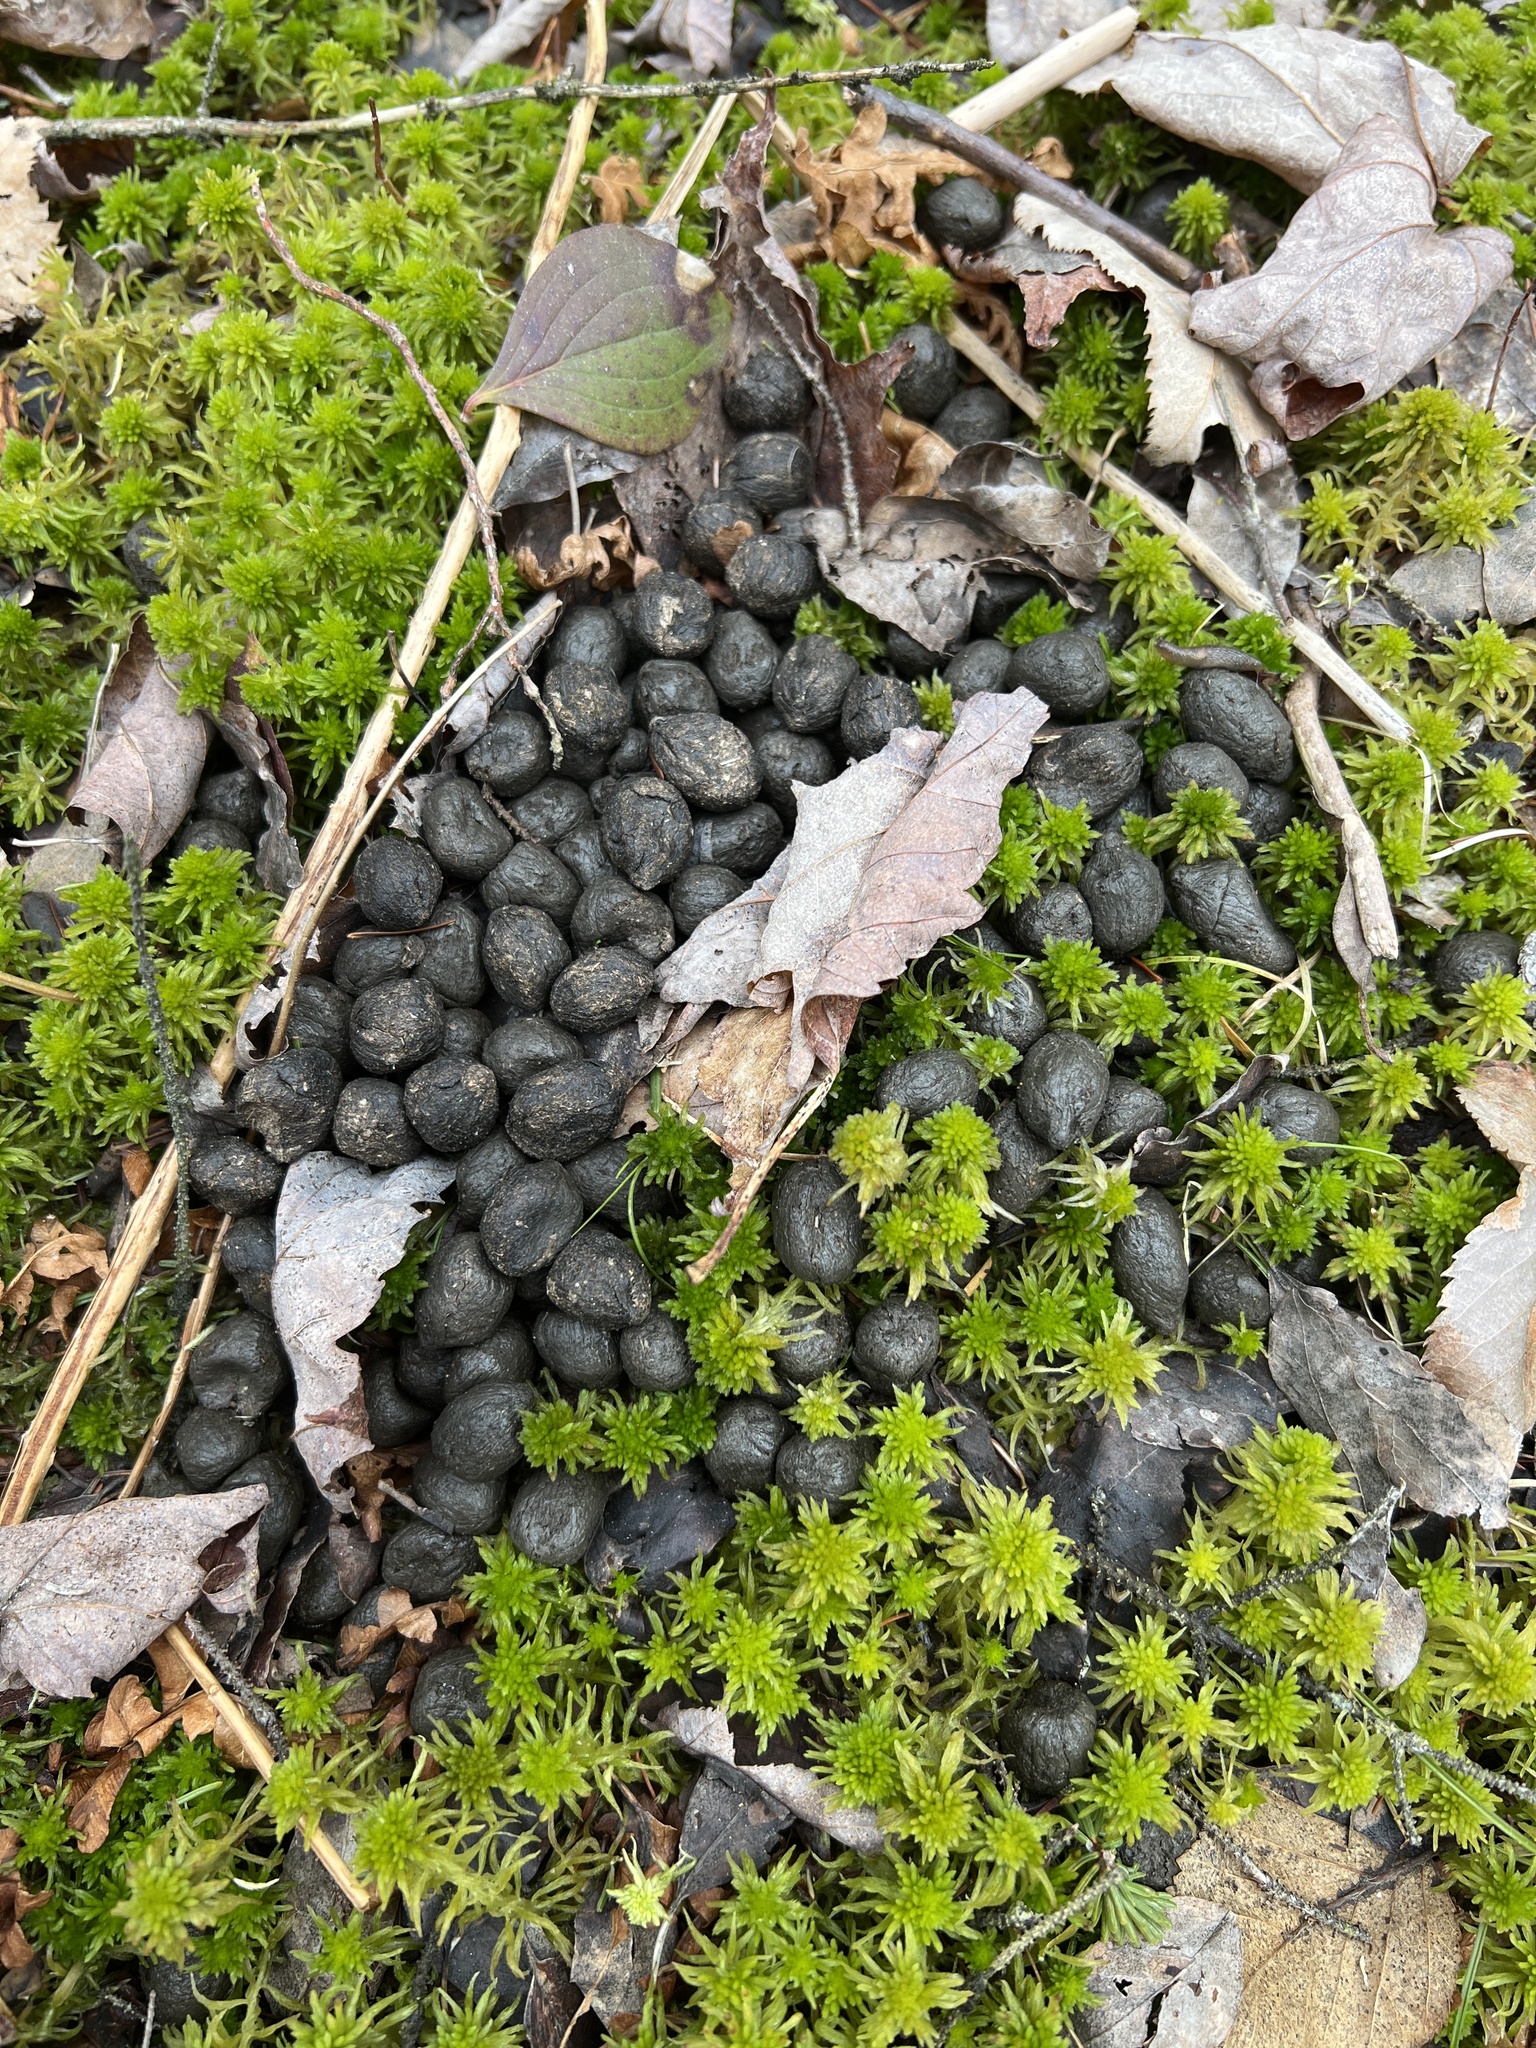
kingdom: Animalia
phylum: Chordata
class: Mammalia
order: Artiodactyla
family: Cervidae
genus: Odocoileus
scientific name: Odocoileus virginianus
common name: White-tailed deer
